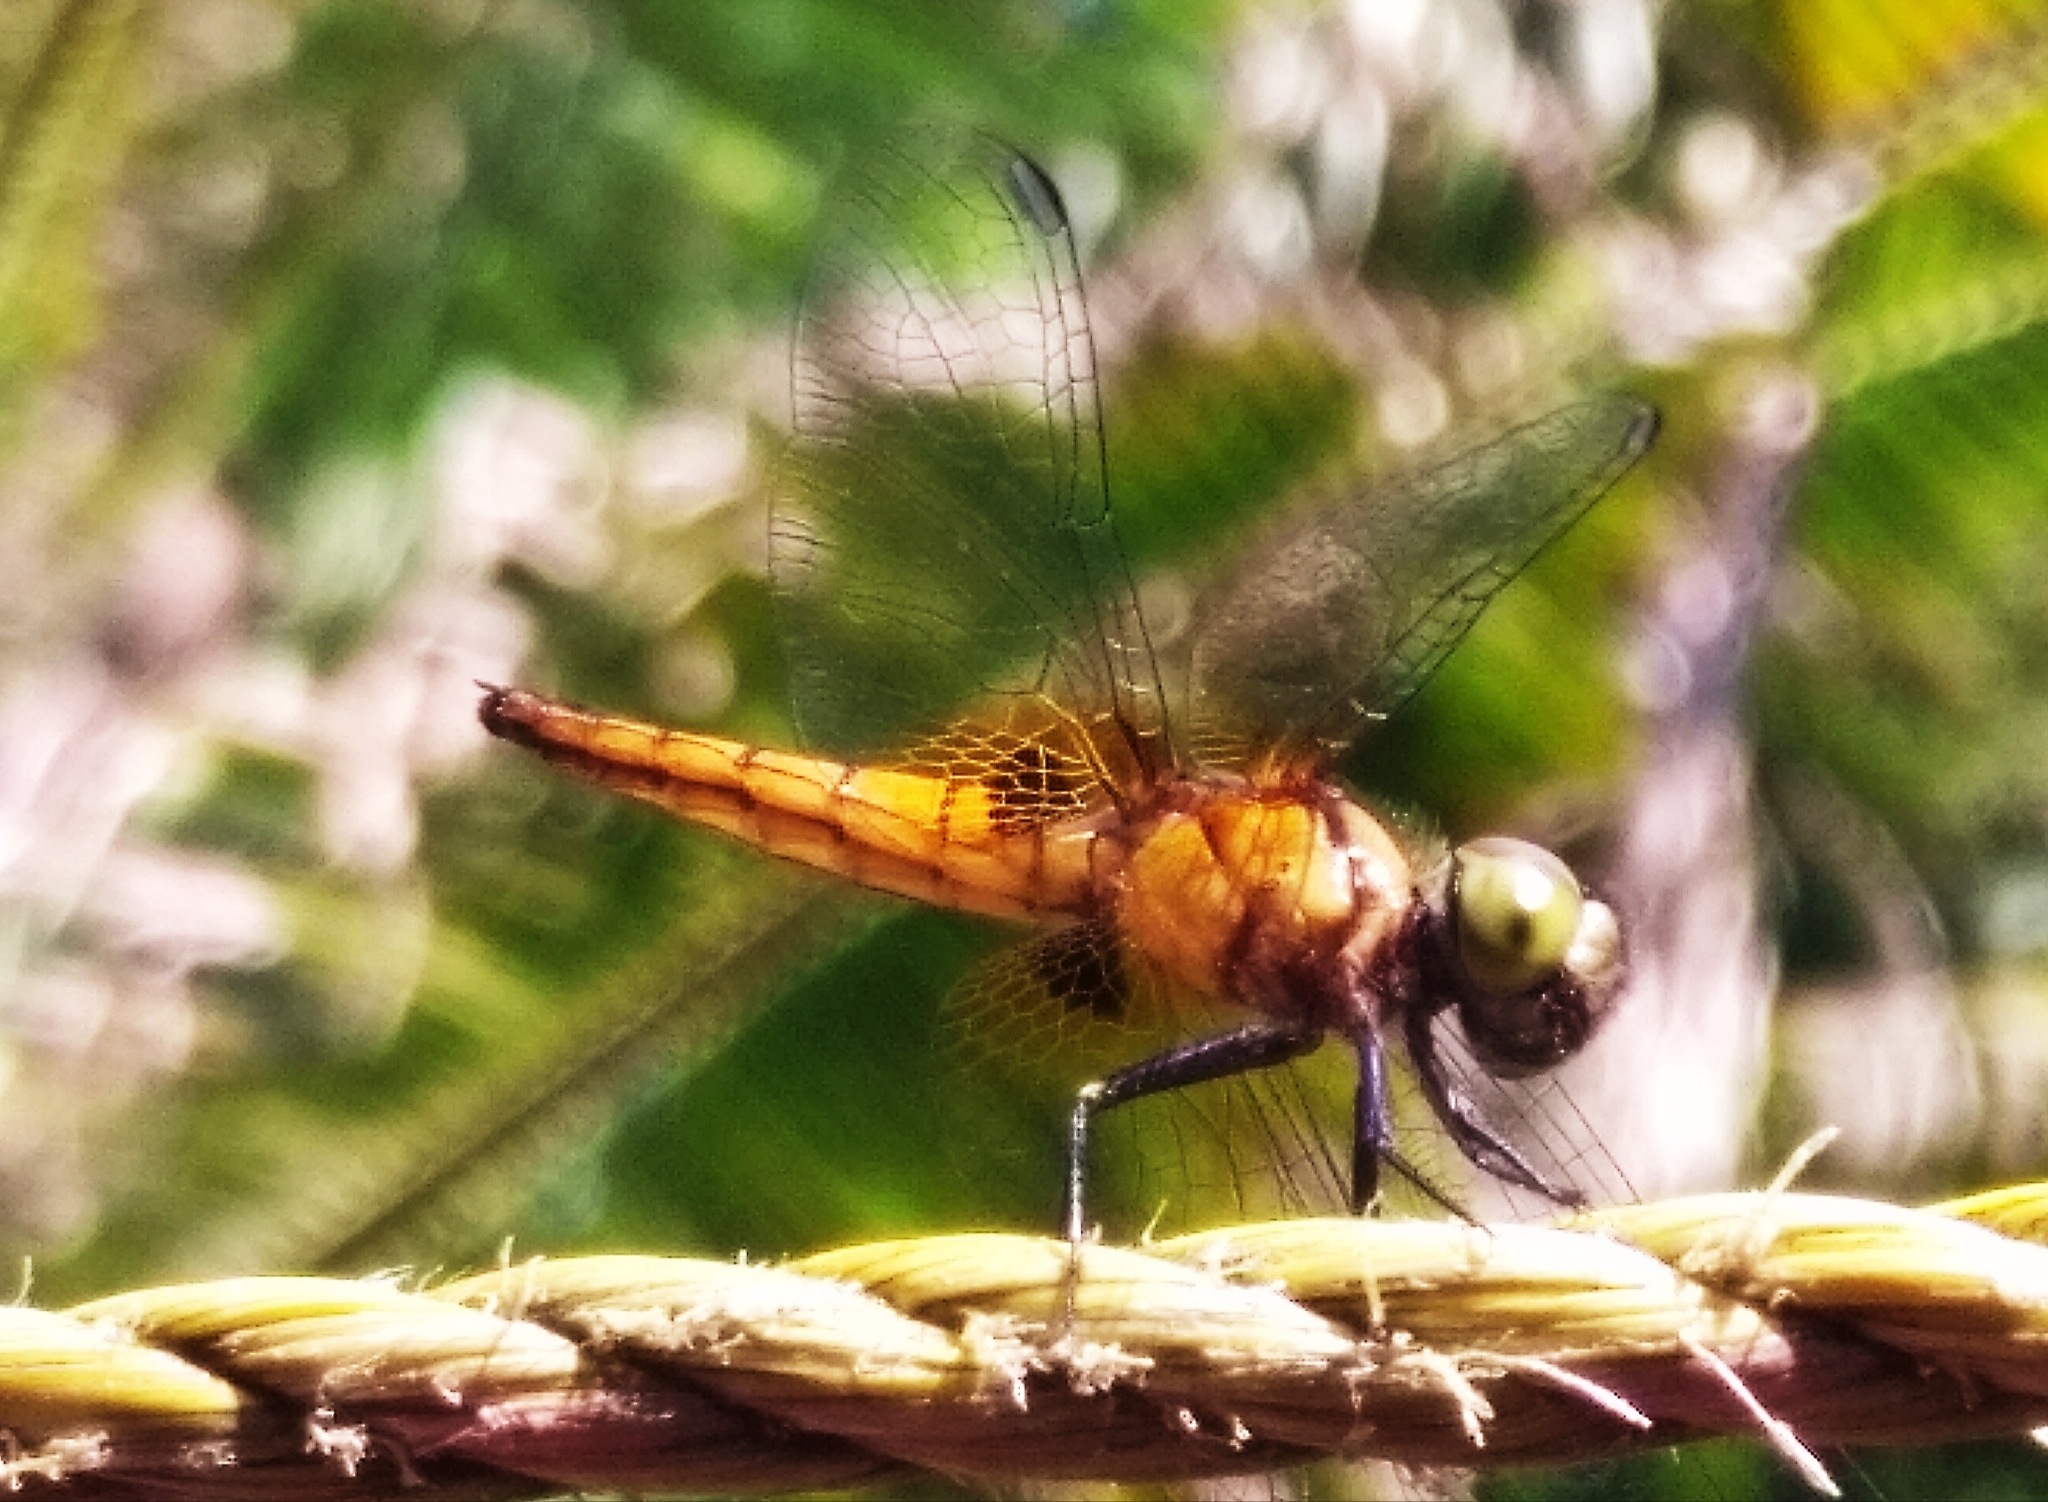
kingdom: Animalia
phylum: Arthropoda
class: Insecta
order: Odonata
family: Libellulidae
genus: Aethriamanta
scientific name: Aethriamanta brevipennis
